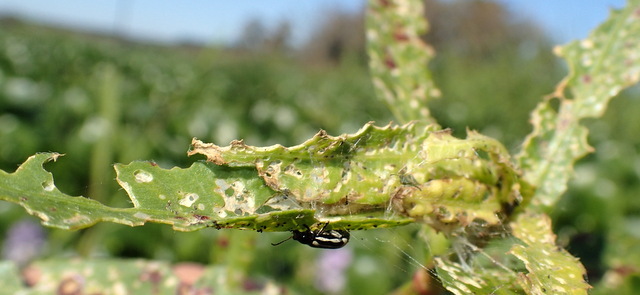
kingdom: Animalia
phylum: Arthropoda
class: Insecta
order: Coleoptera
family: Chrysomelidae
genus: Agasicles
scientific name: Agasicles hygrophila
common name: Alligatorweed flea beetle
